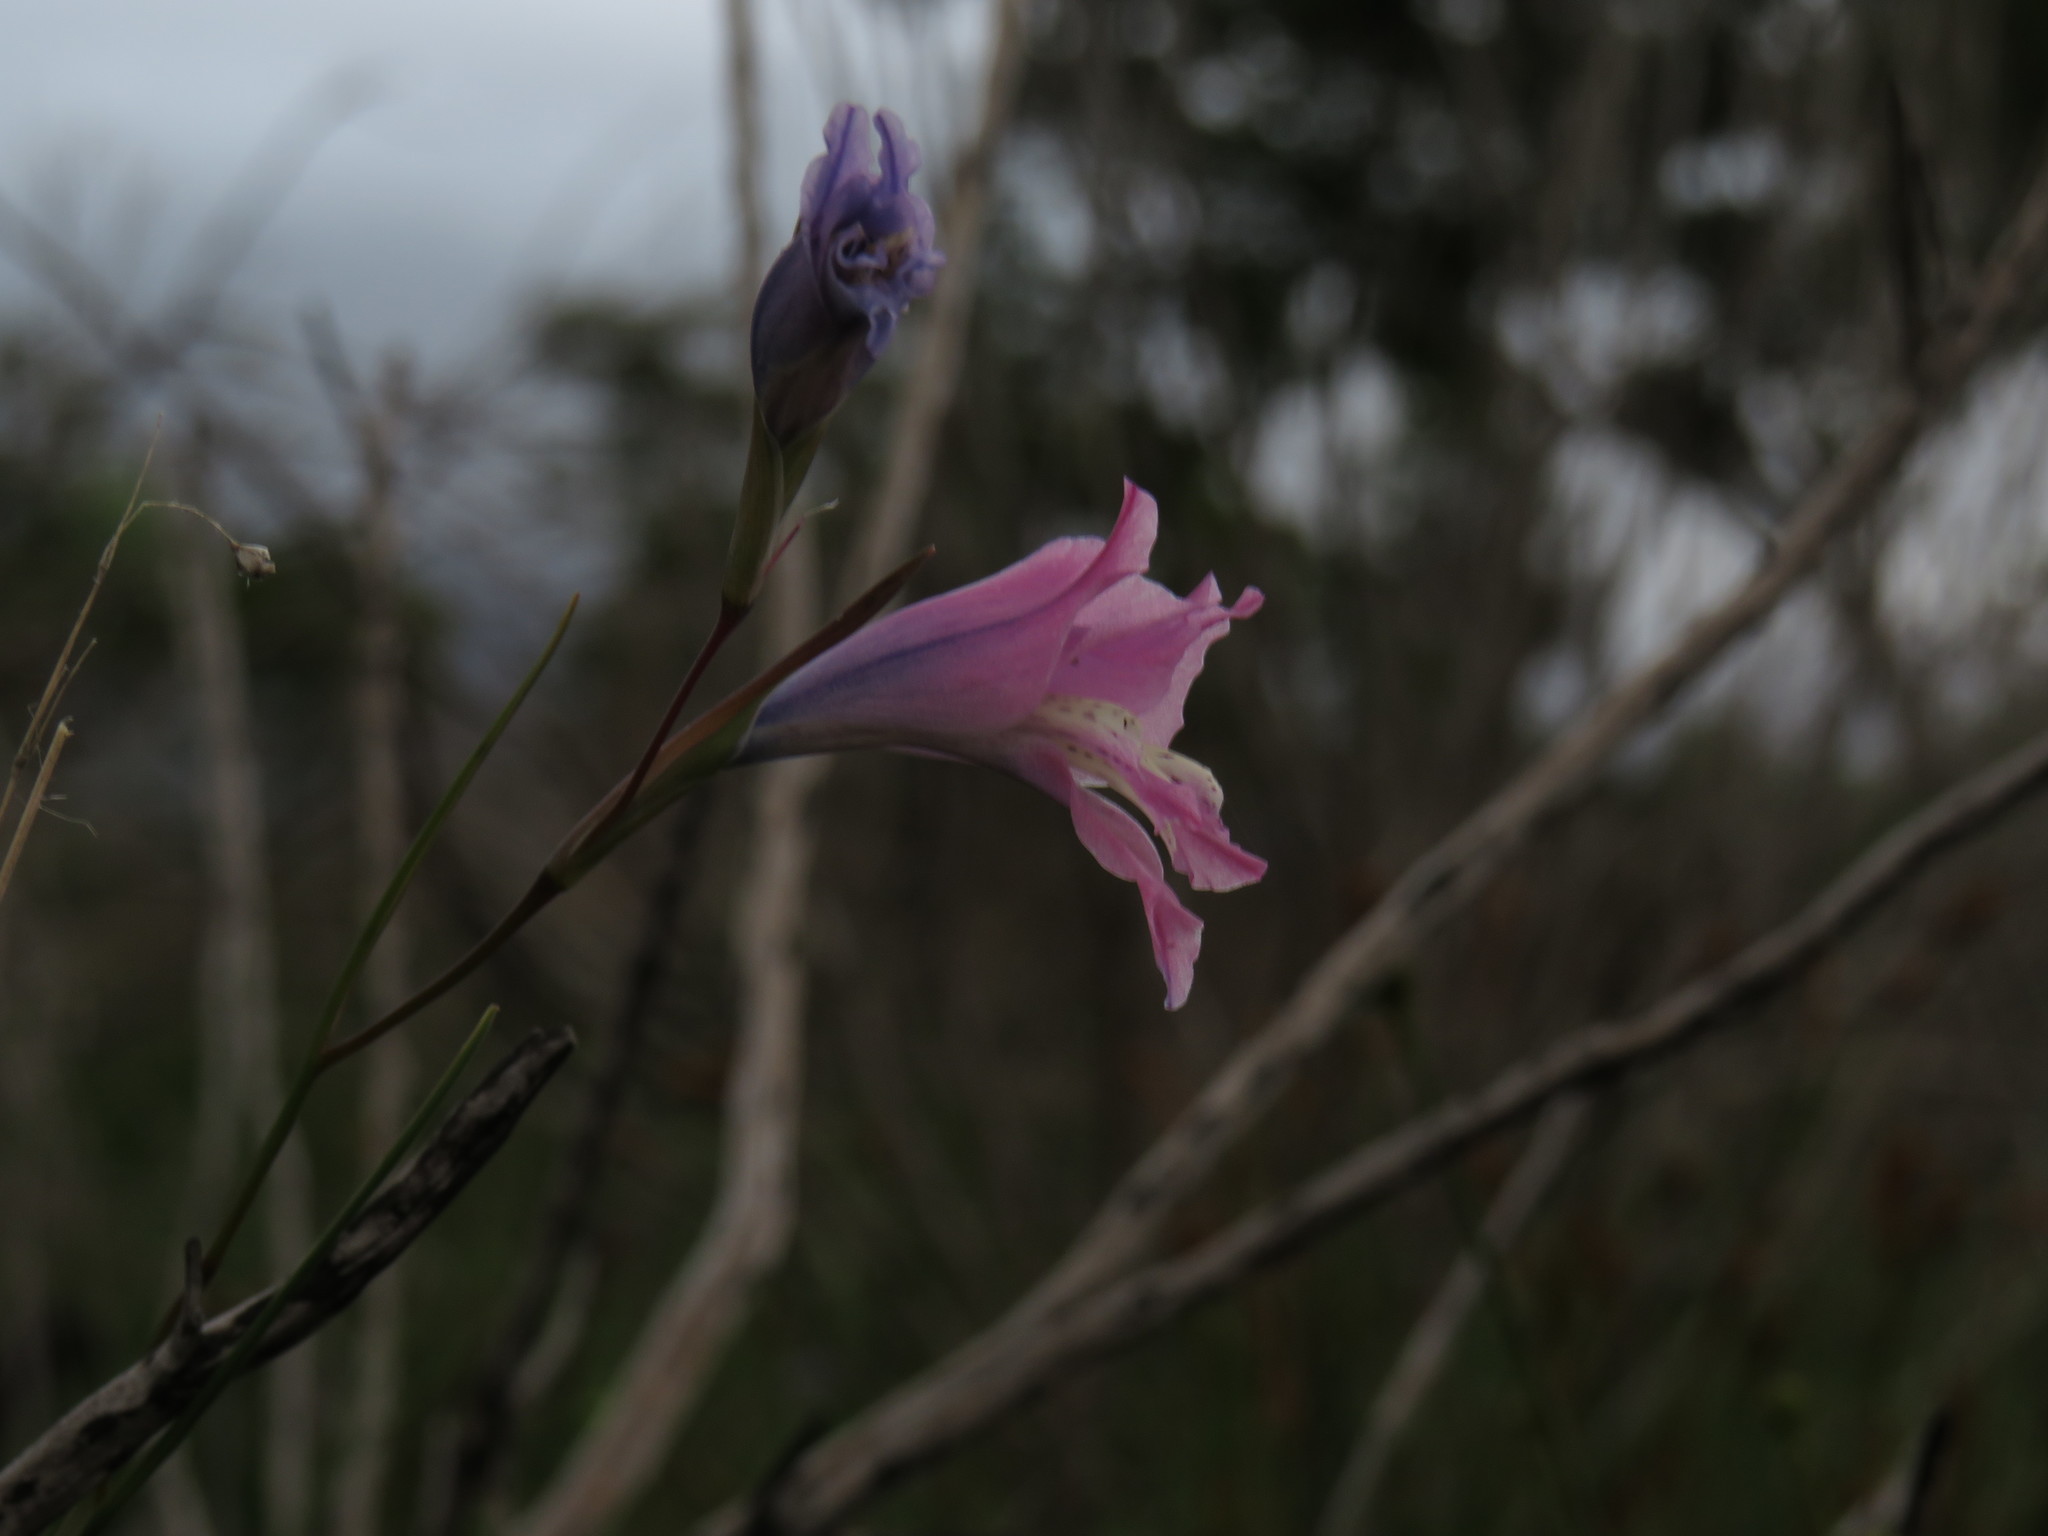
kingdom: Plantae
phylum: Tracheophyta
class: Liliopsida
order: Asparagales
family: Iridaceae
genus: Gladiolus
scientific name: Gladiolus gracilis
